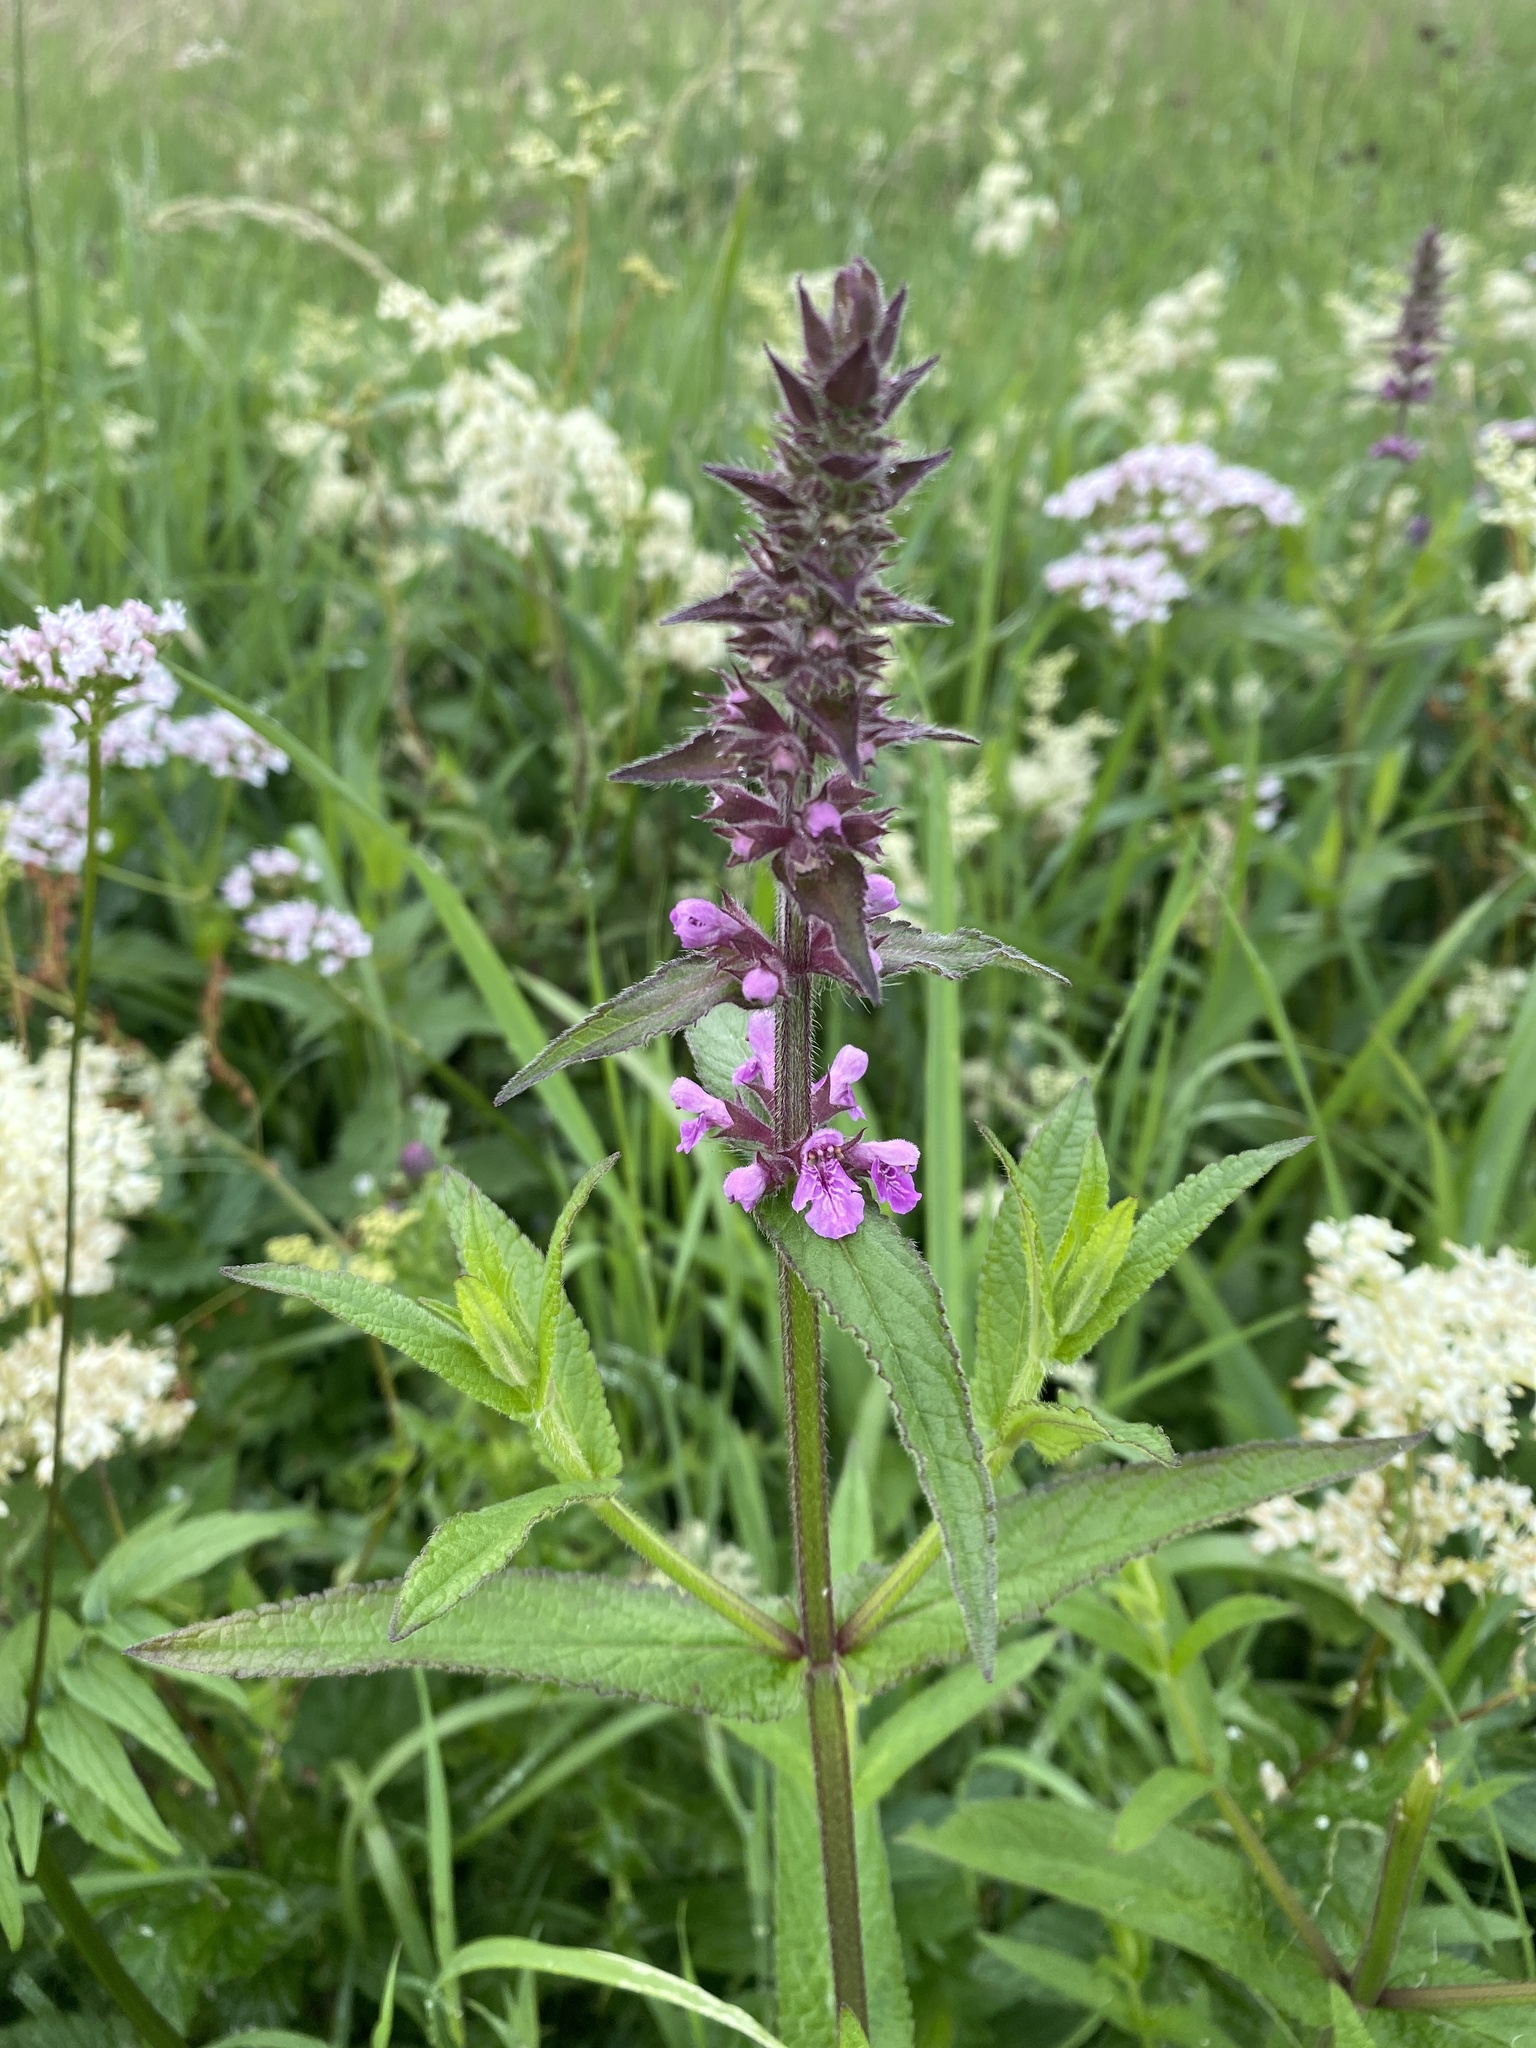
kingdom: Plantae
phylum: Tracheophyta
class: Magnoliopsida
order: Lamiales
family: Lamiaceae
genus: Stachys
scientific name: Stachys palustris
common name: Marsh woundwort
